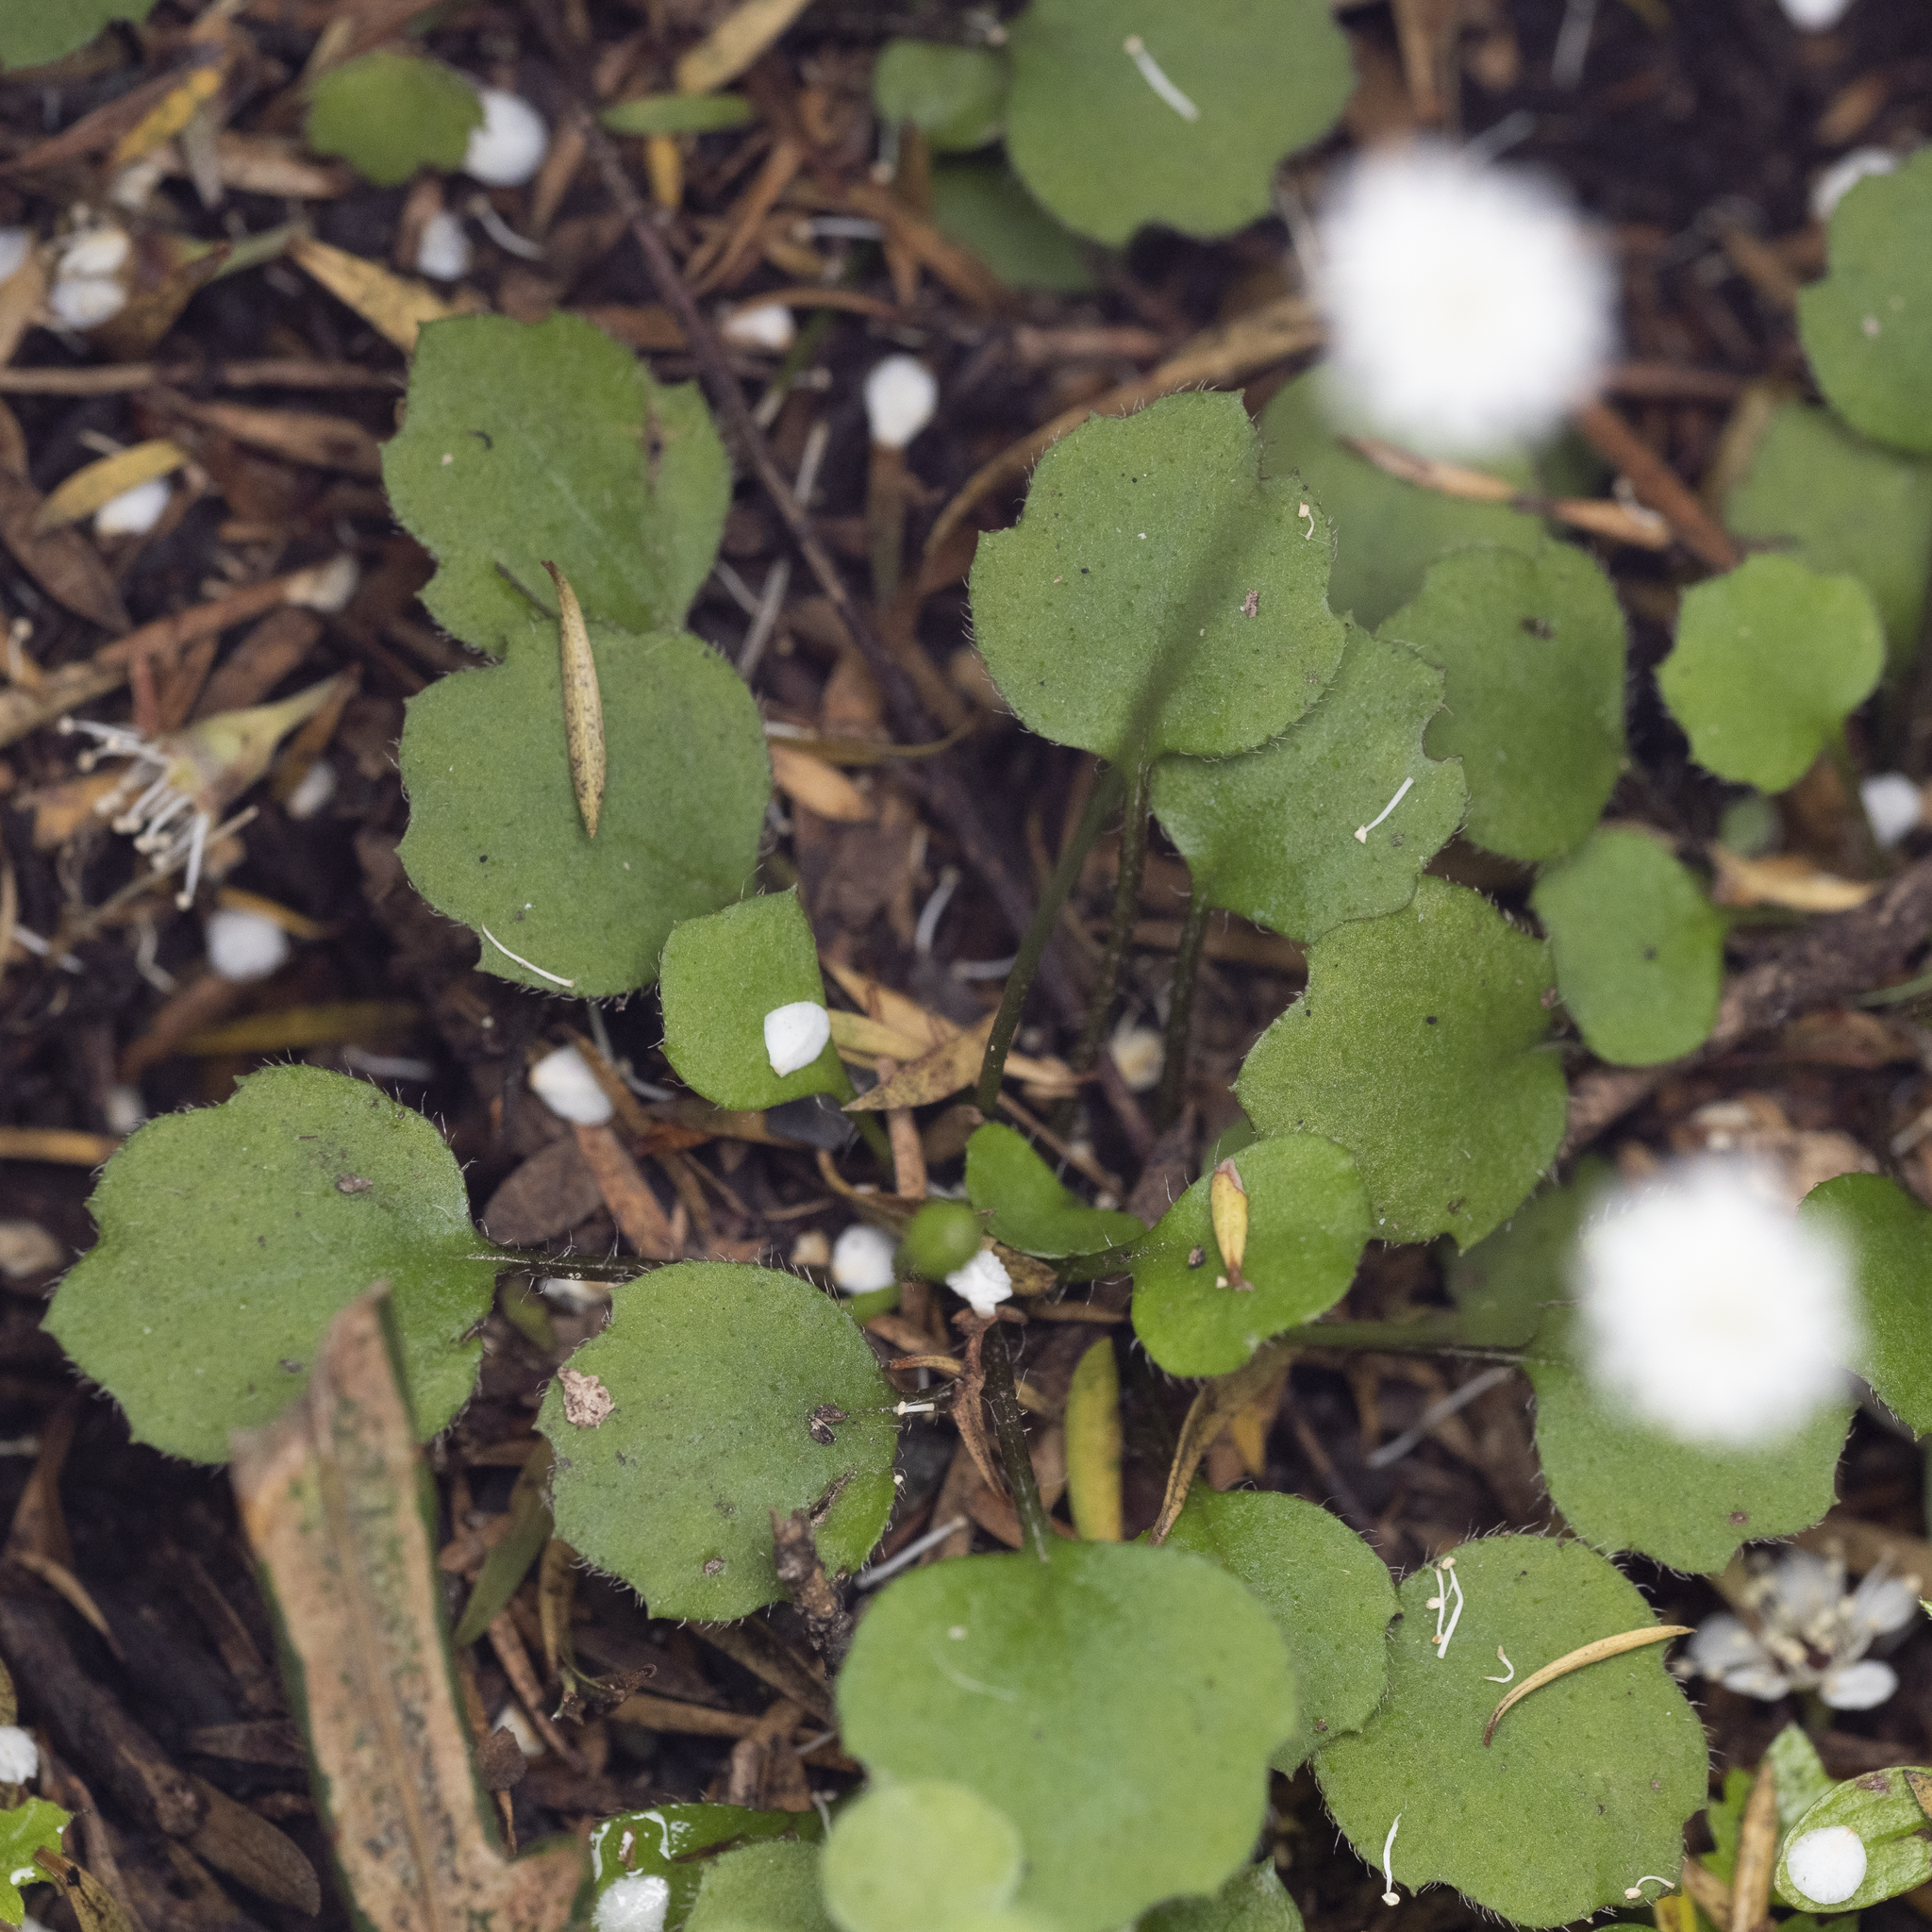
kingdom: Plantae
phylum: Tracheophyta
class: Magnoliopsida
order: Asterales
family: Asteraceae
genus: Lagenophora
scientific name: Lagenophora strangulata
